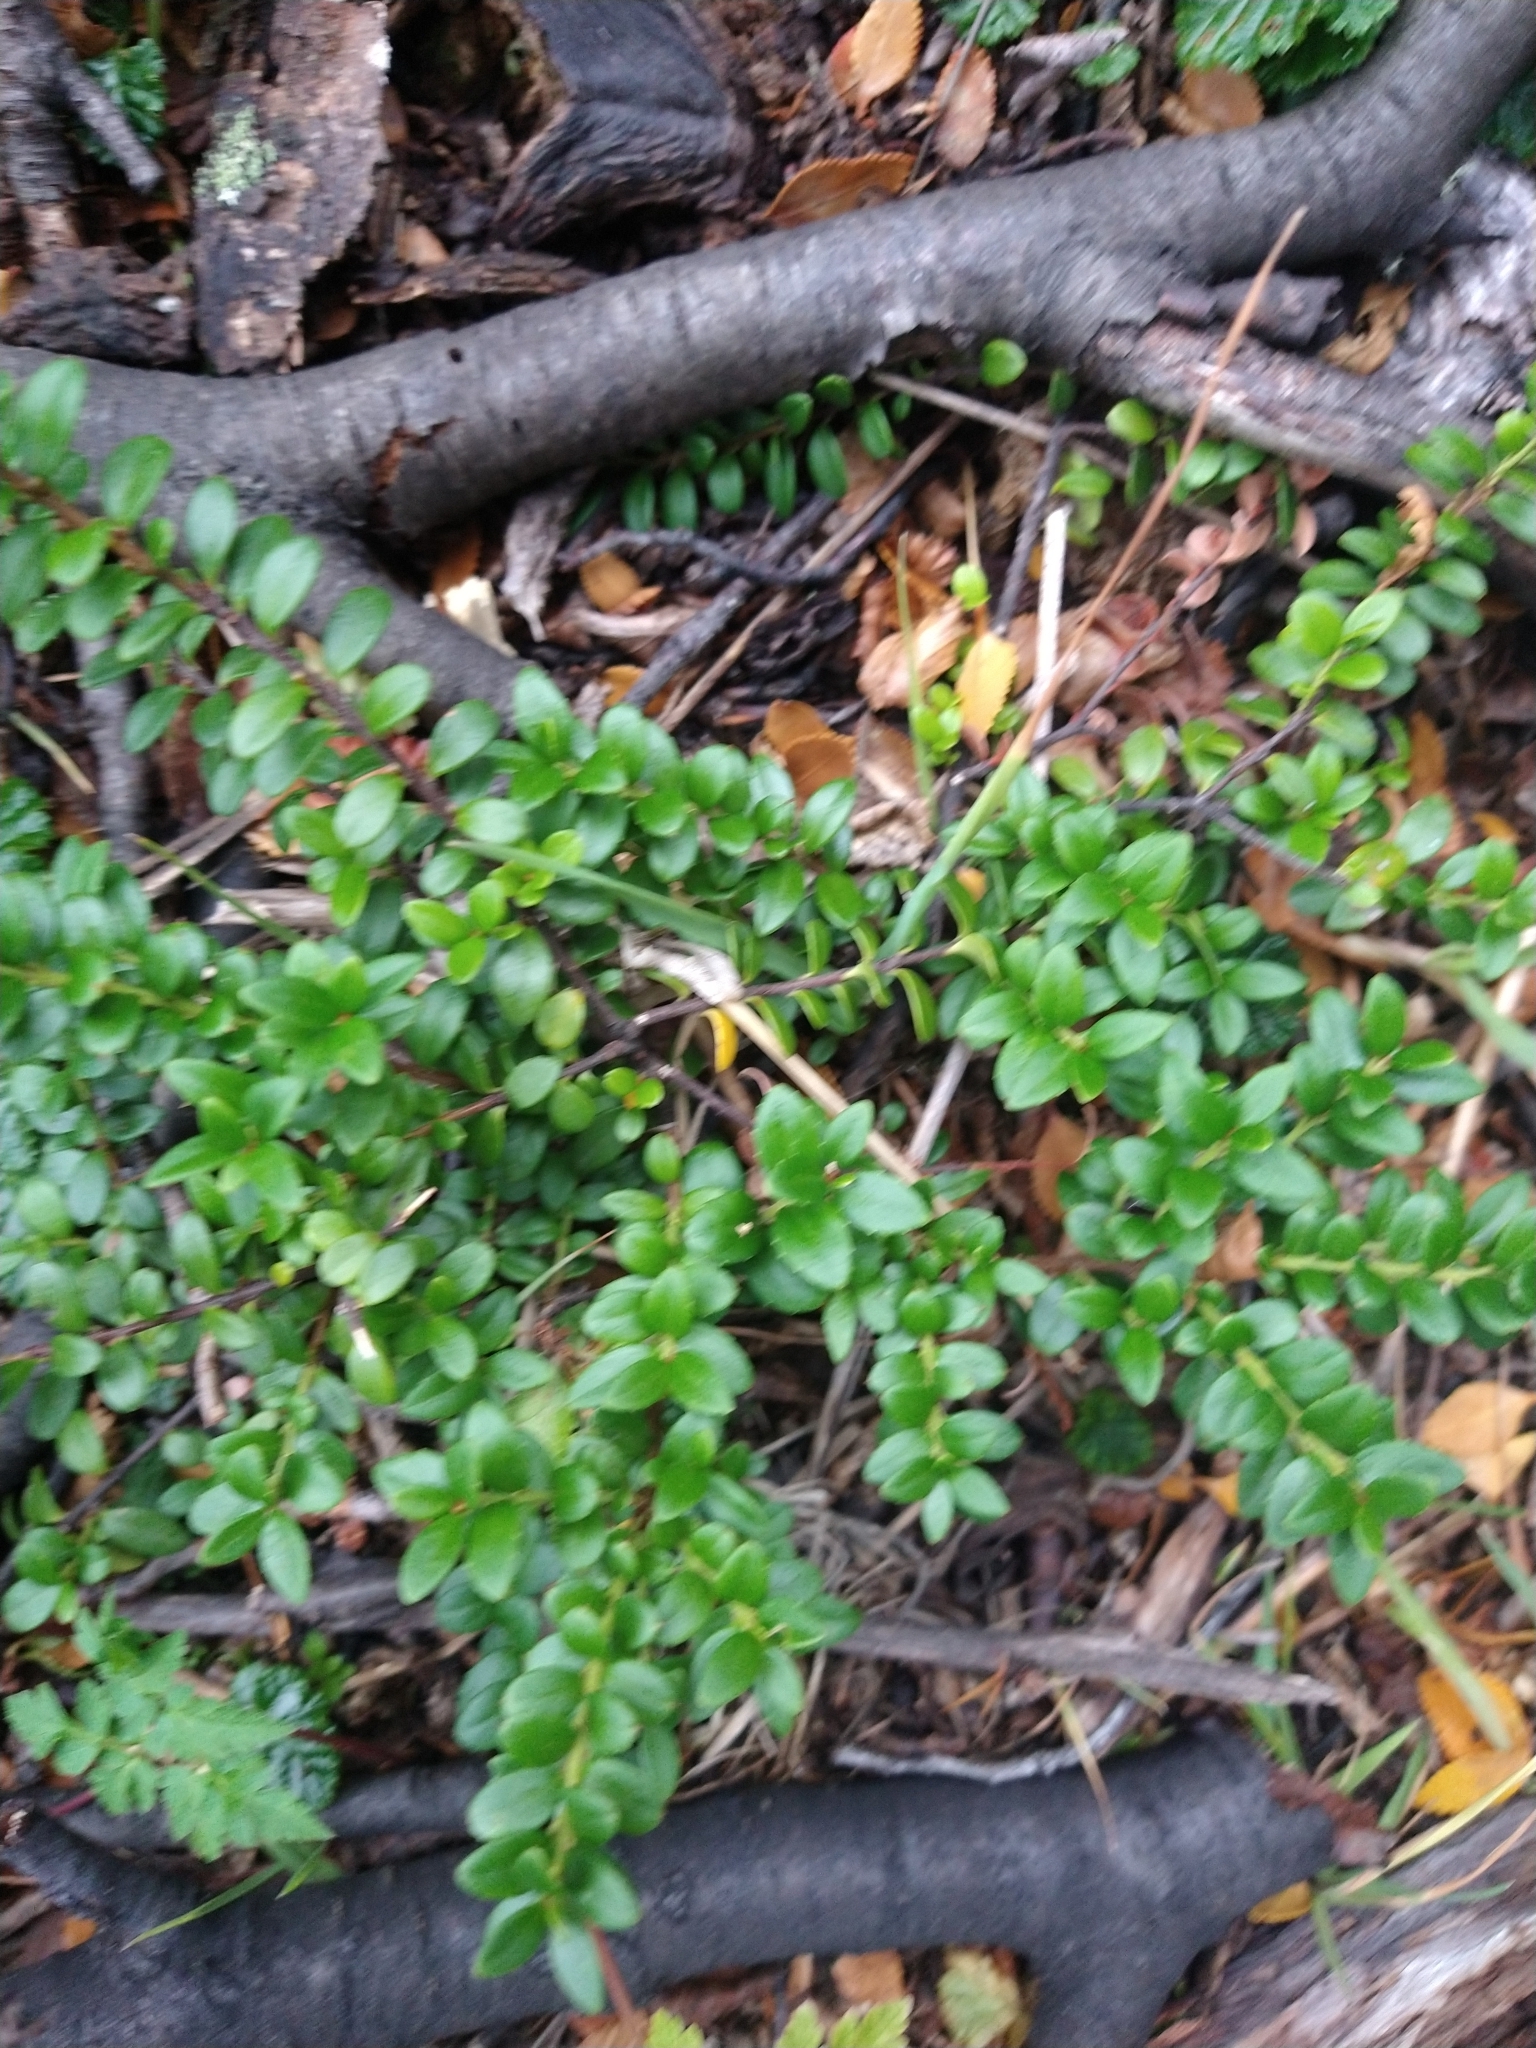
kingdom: Plantae
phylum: Tracheophyta
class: Magnoliopsida
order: Celastrales
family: Celastraceae
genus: Maytenus
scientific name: Maytenus disticha
